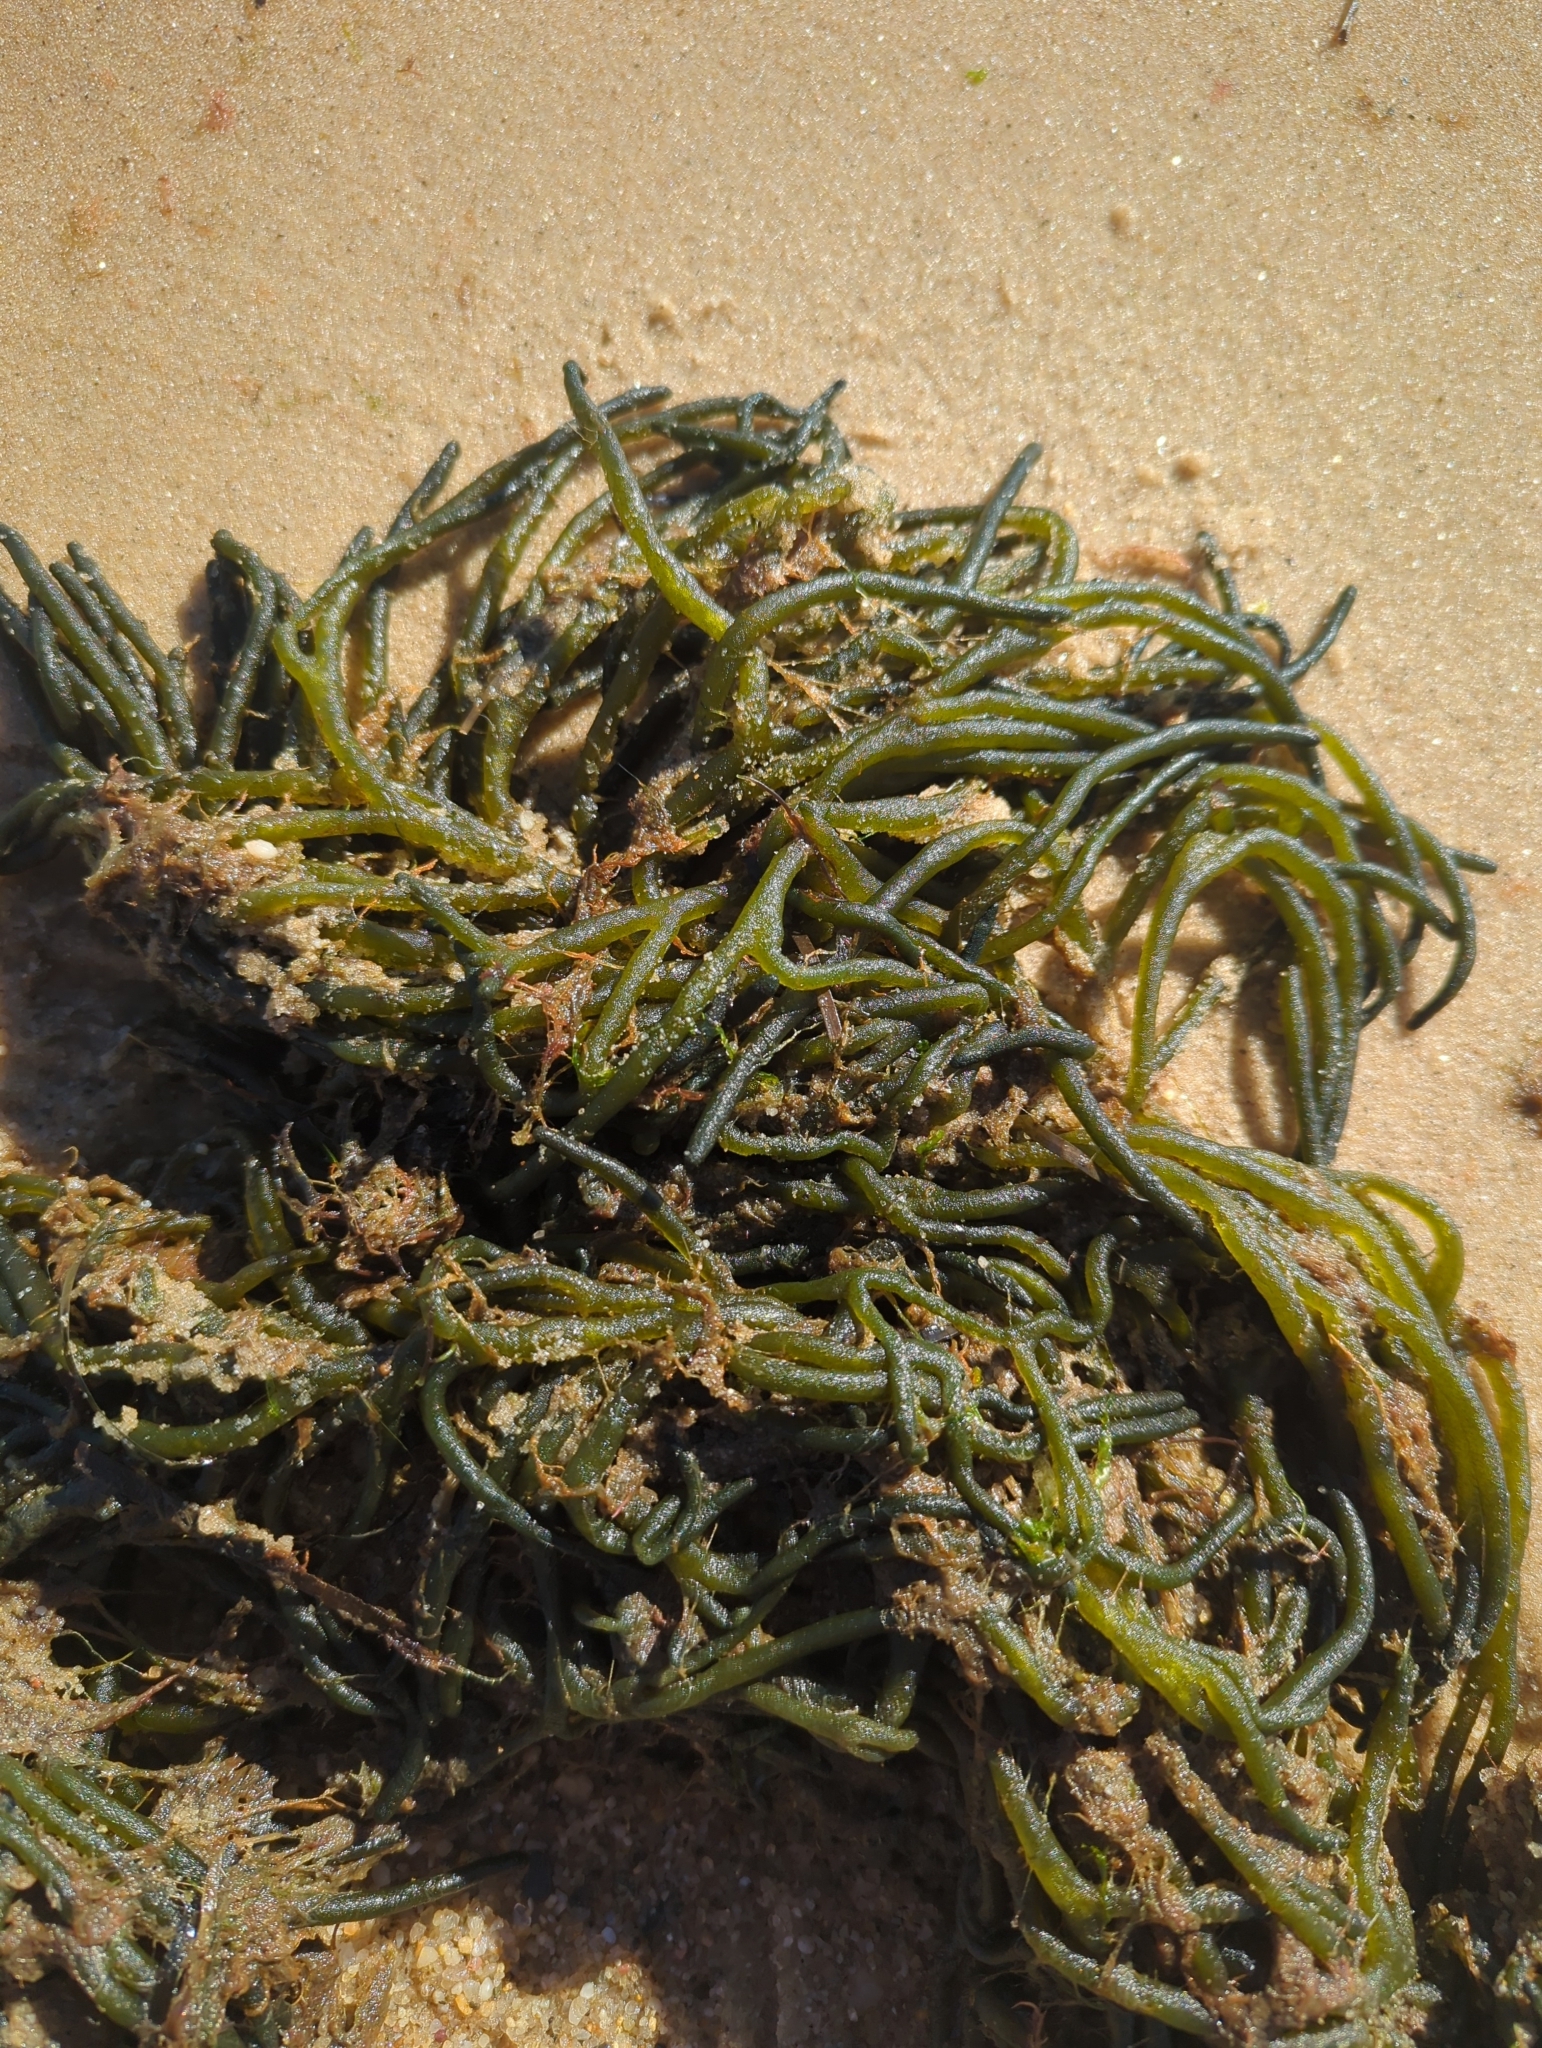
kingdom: Plantae
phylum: Chlorophyta
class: Ulvophyceae
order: Bryopsidales
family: Codiaceae
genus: Codium
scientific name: Codium fragile
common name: Dead man's fingers
